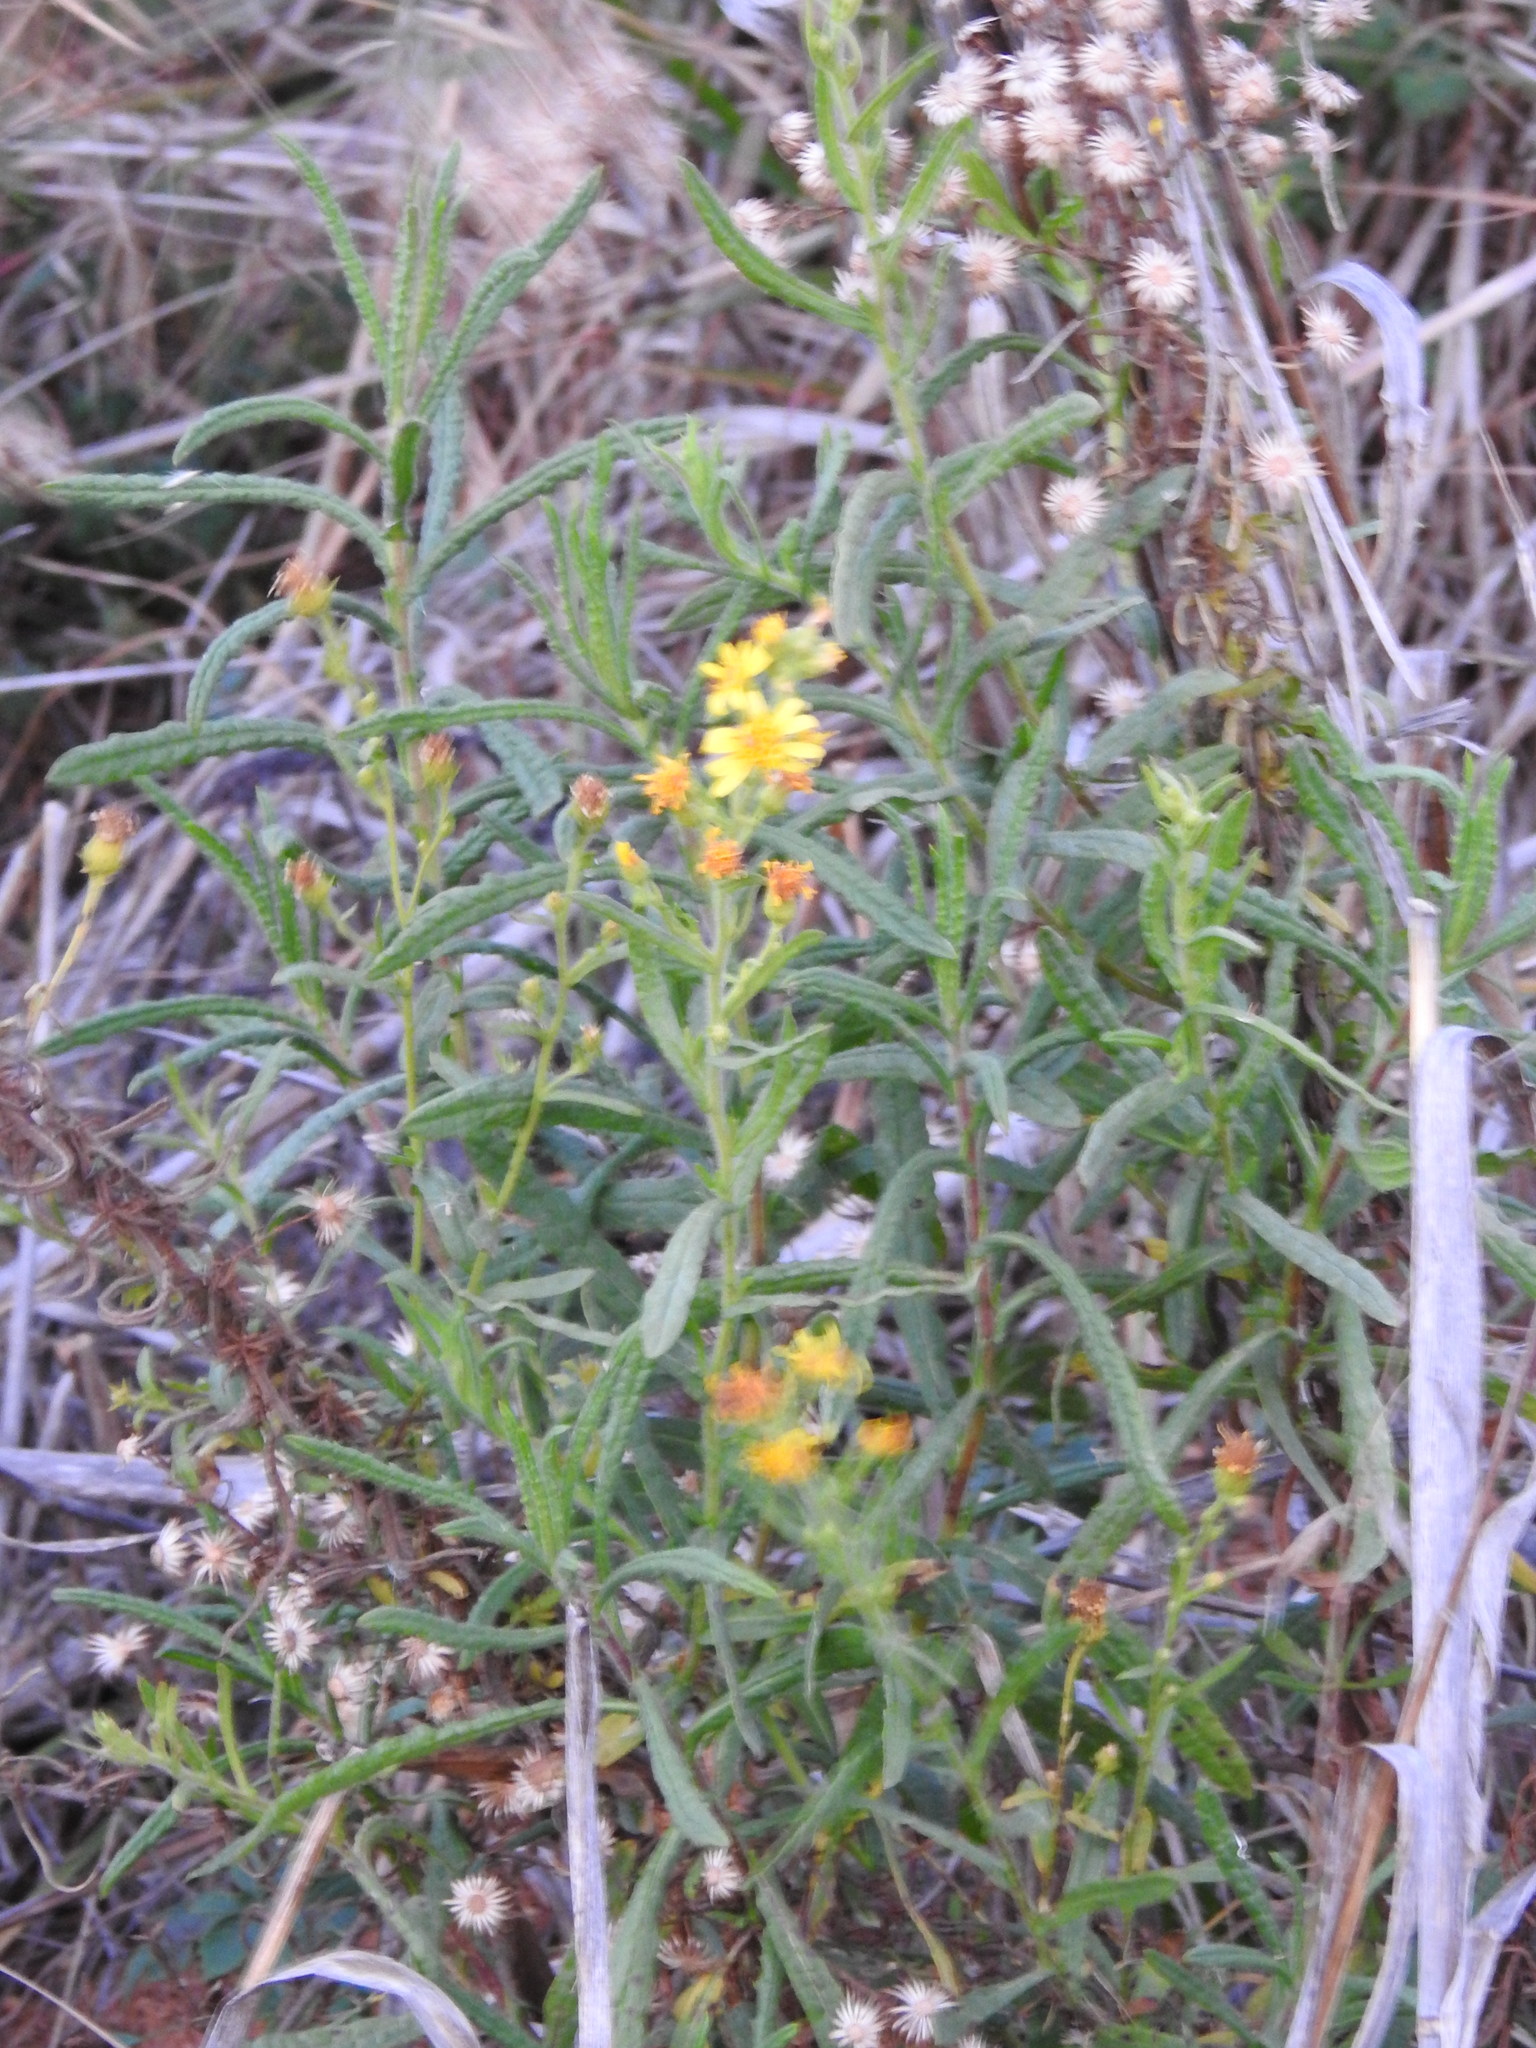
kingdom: Plantae
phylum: Tracheophyta
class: Magnoliopsida
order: Asterales
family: Asteraceae
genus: Dittrichia
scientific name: Dittrichia viscosa
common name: Woody fleabane
